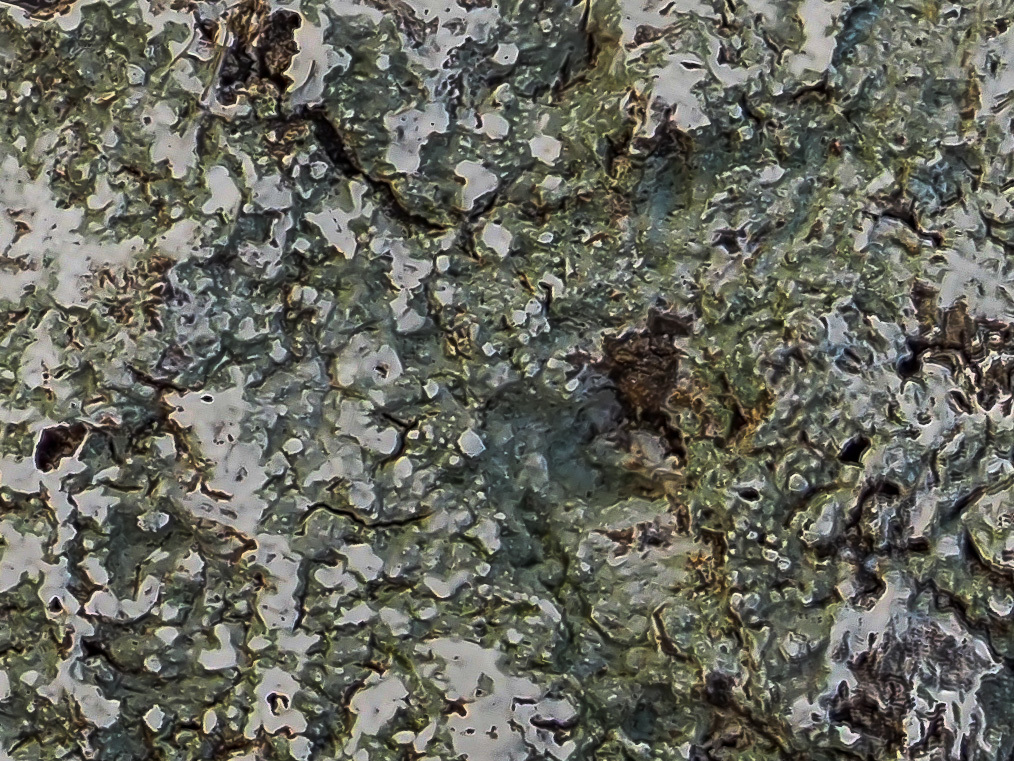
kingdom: Fungi
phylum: Ascomycota
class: Lecanoromycetes
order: Pertusariales
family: Pertusariaceae
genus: Lepra
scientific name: Lepra albescens
